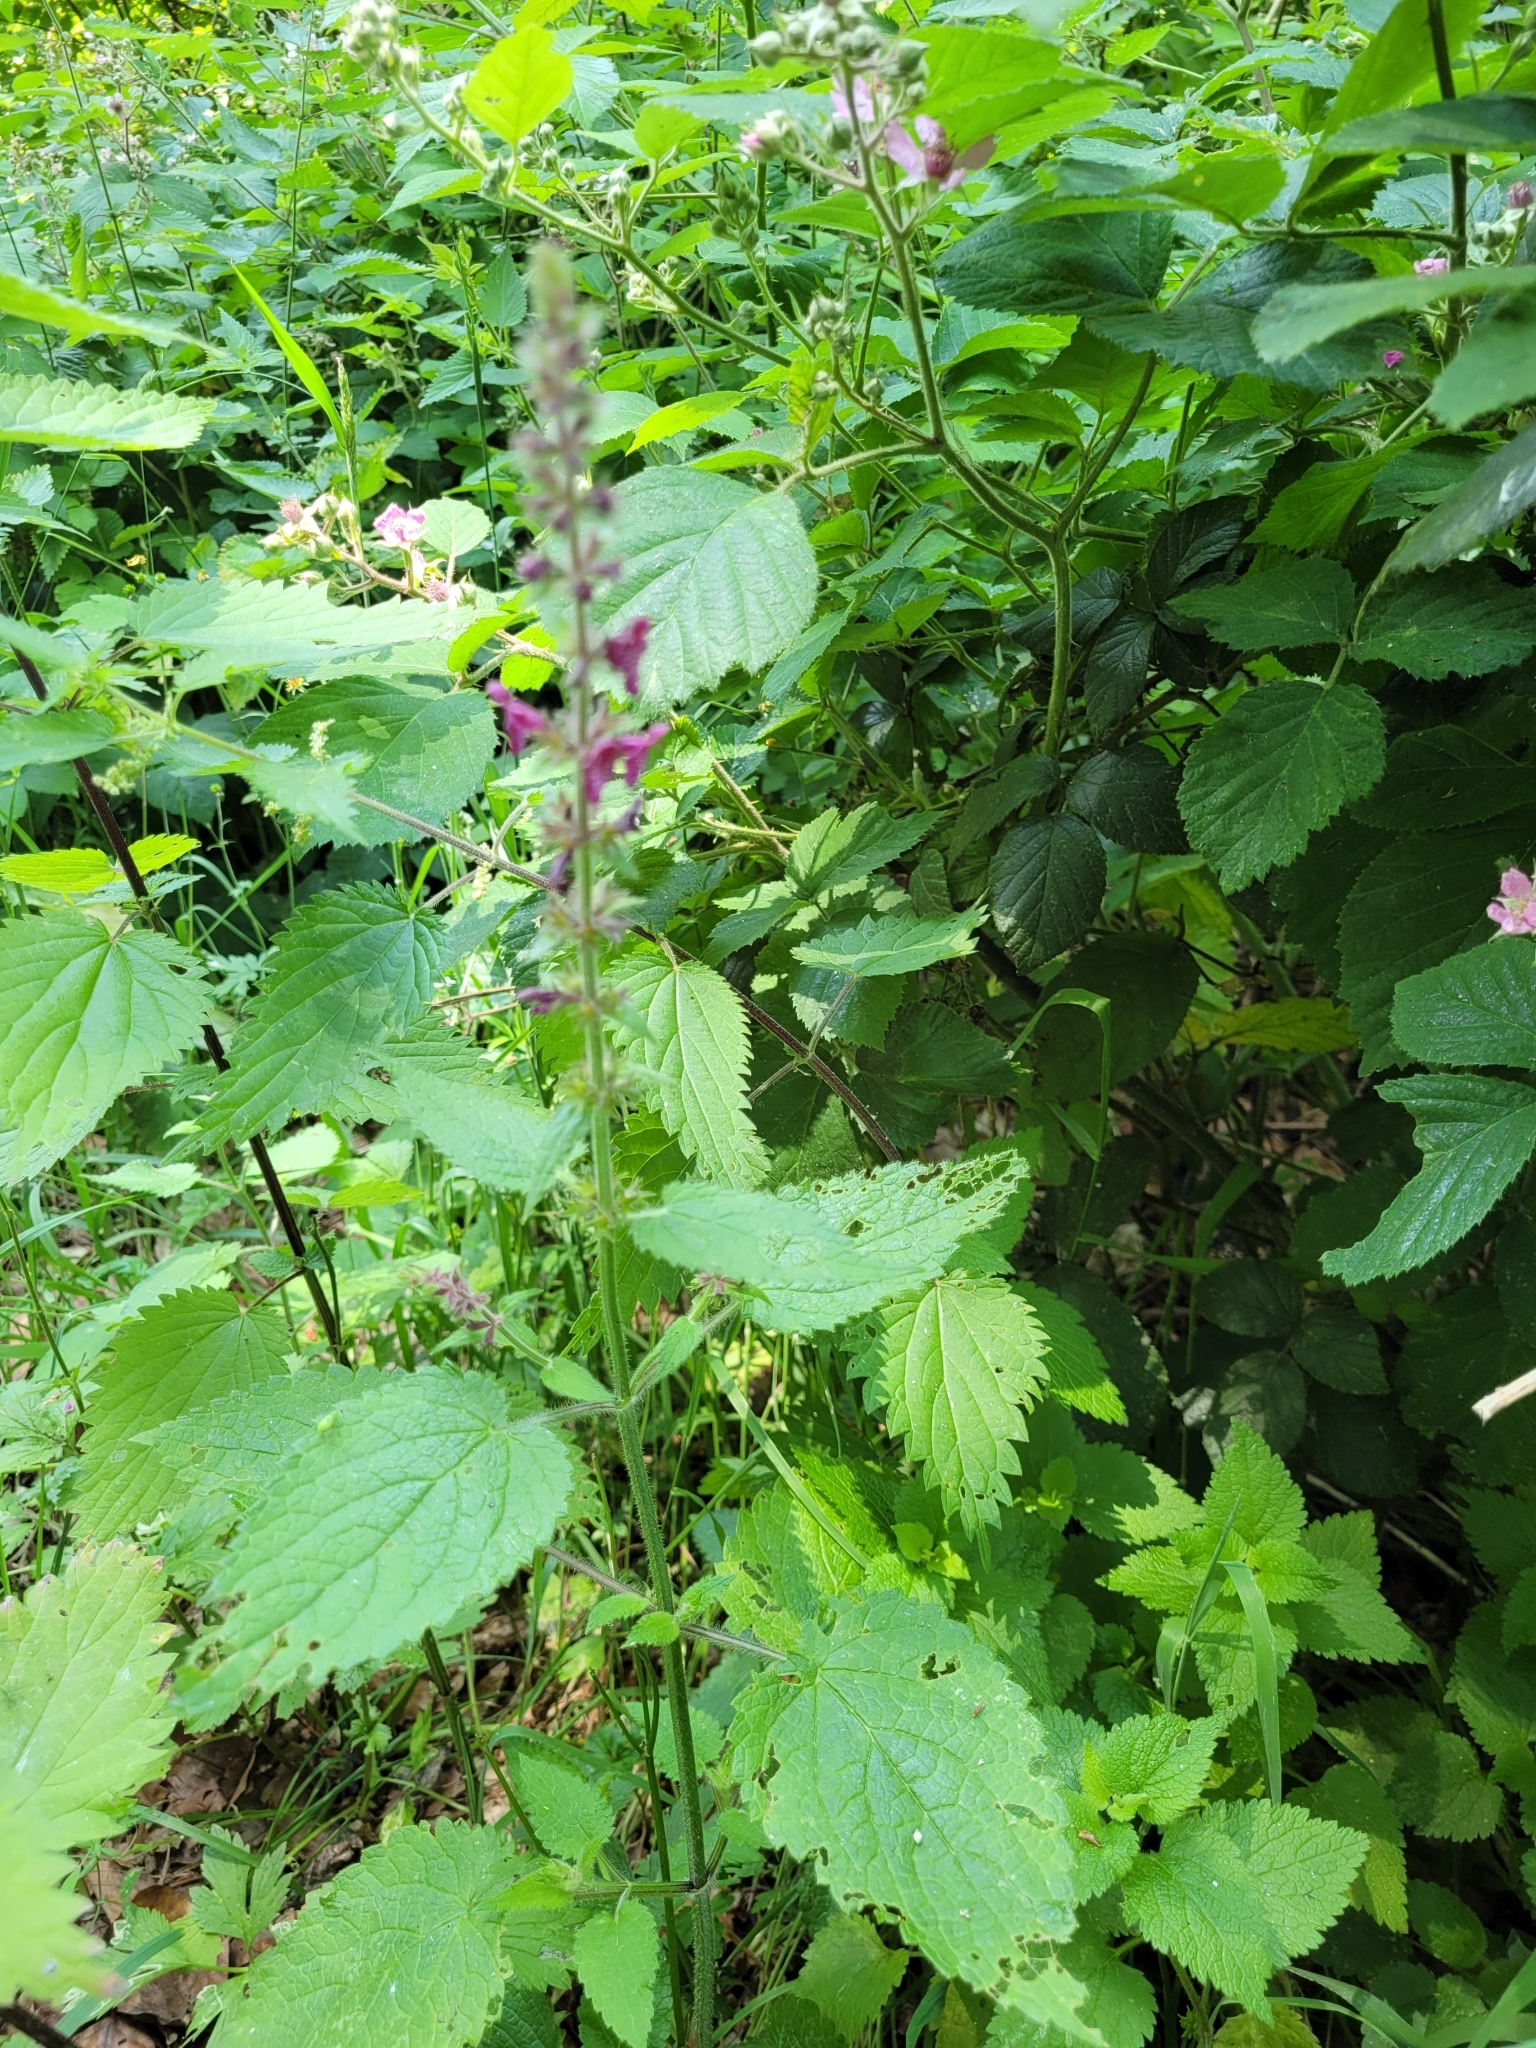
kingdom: Plantae
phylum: Tracheophyta
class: Magnoliopsida
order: Lamiales
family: Lamiaceae
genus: Stachys
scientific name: Stachys sylvatica
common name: Hedge woundwort
